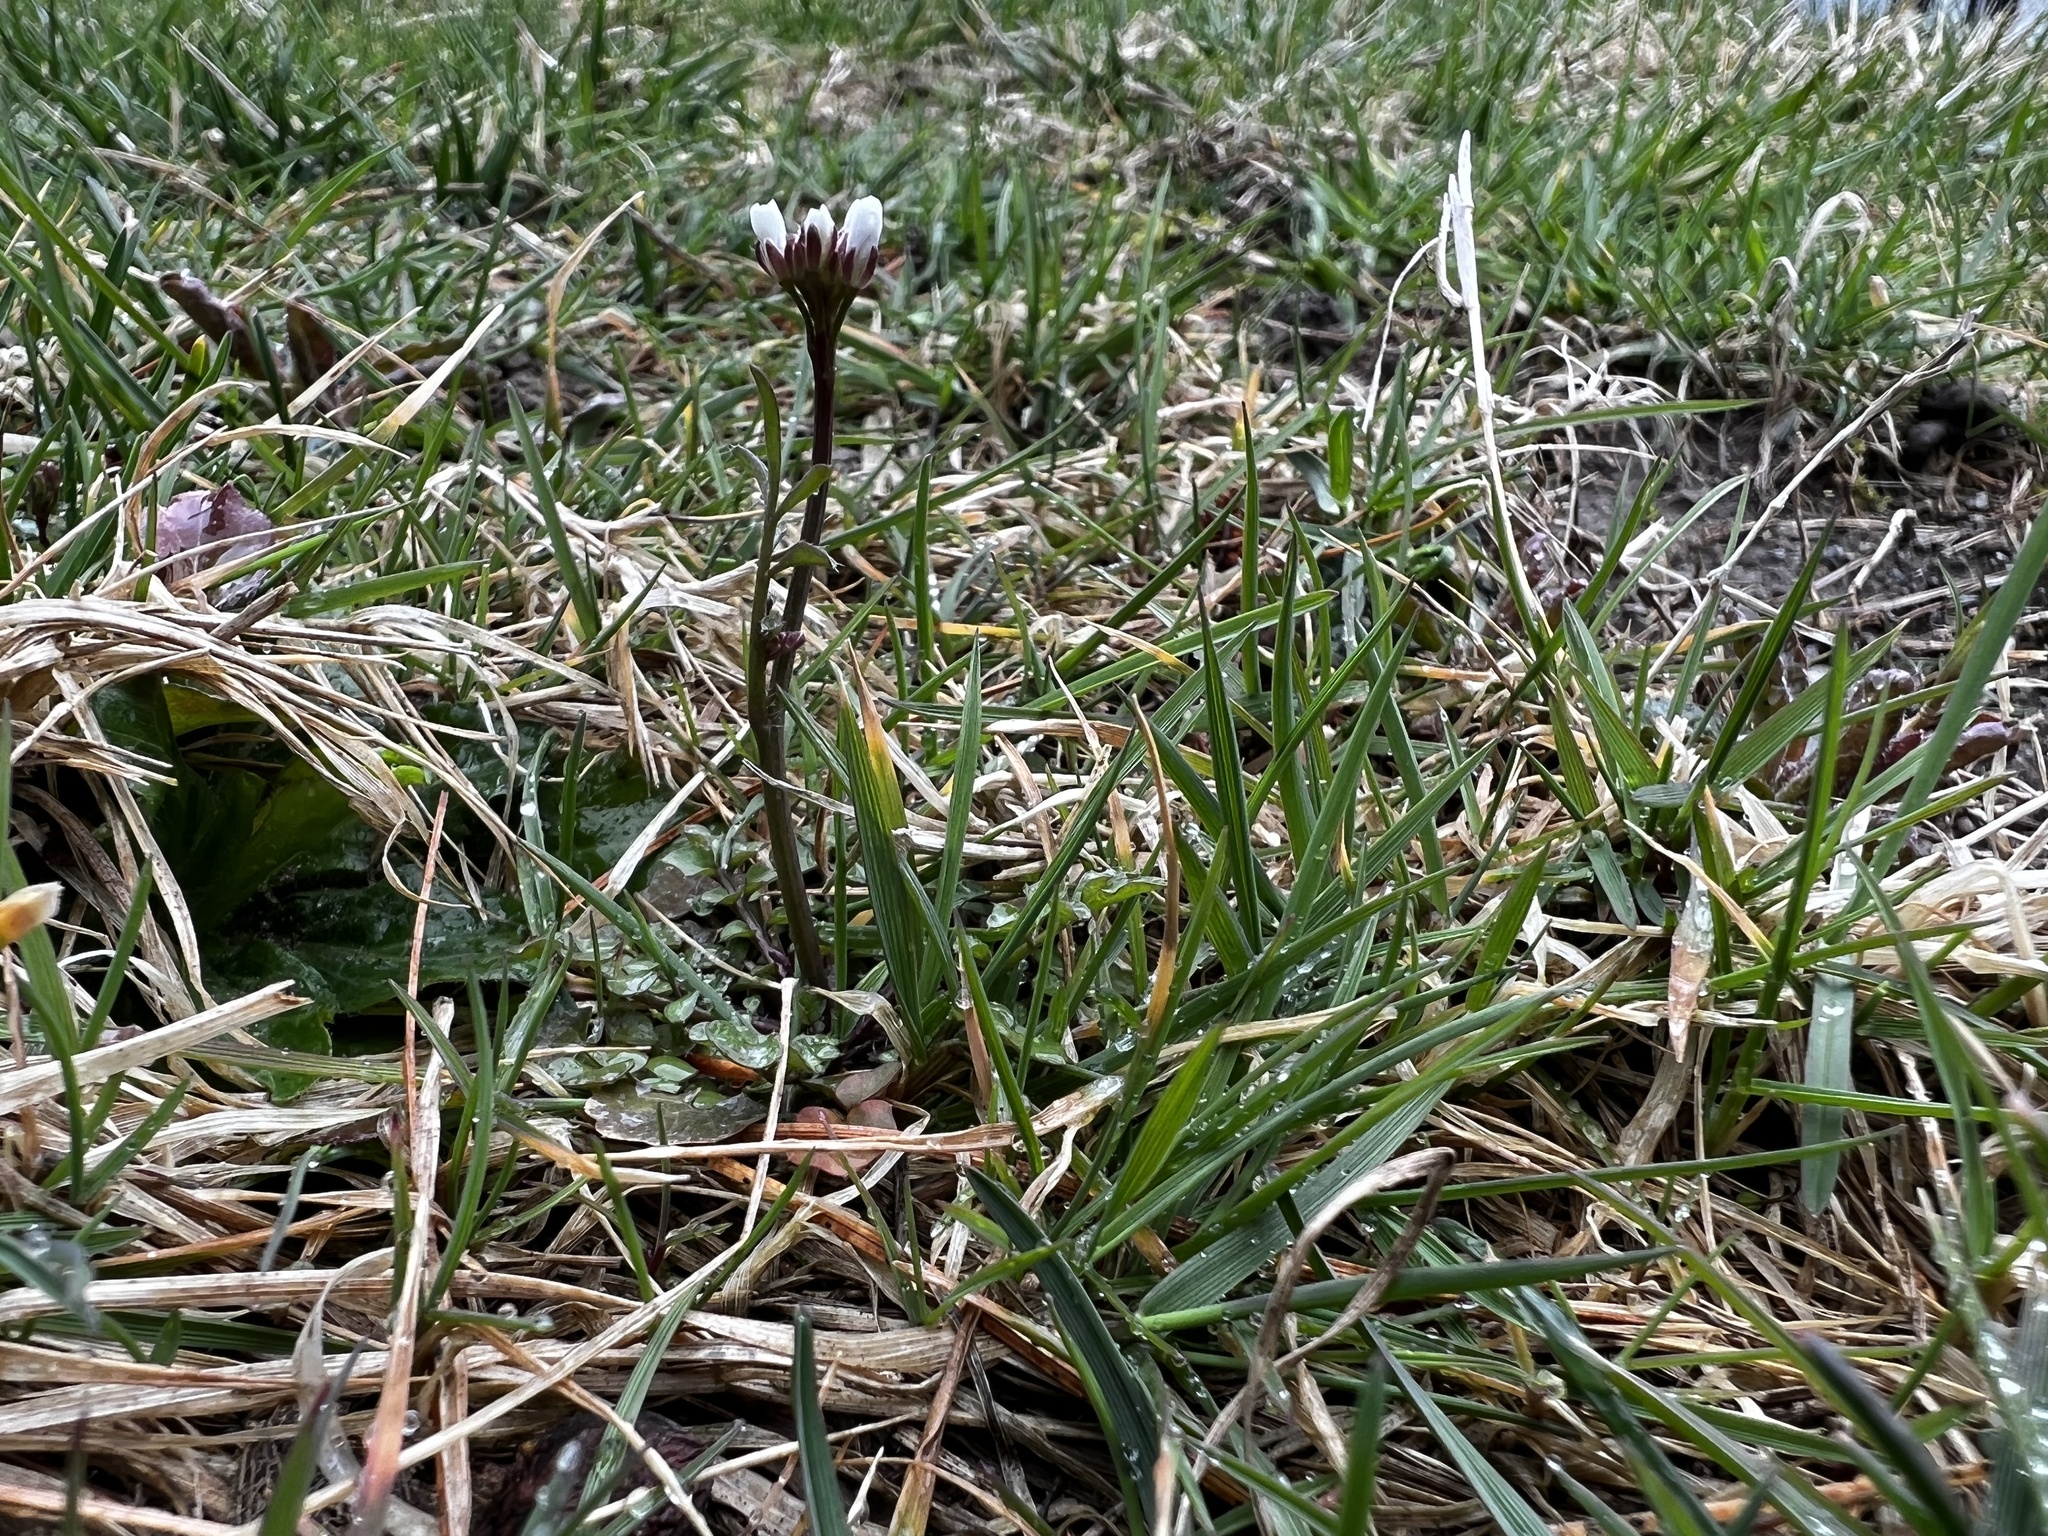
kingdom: Plantae
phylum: Tracheophyta
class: Magnoliopsida
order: Brassicales
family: Brassicaceae
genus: Cardamine
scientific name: Cardamine hirsuta
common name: Hairy bittercress
